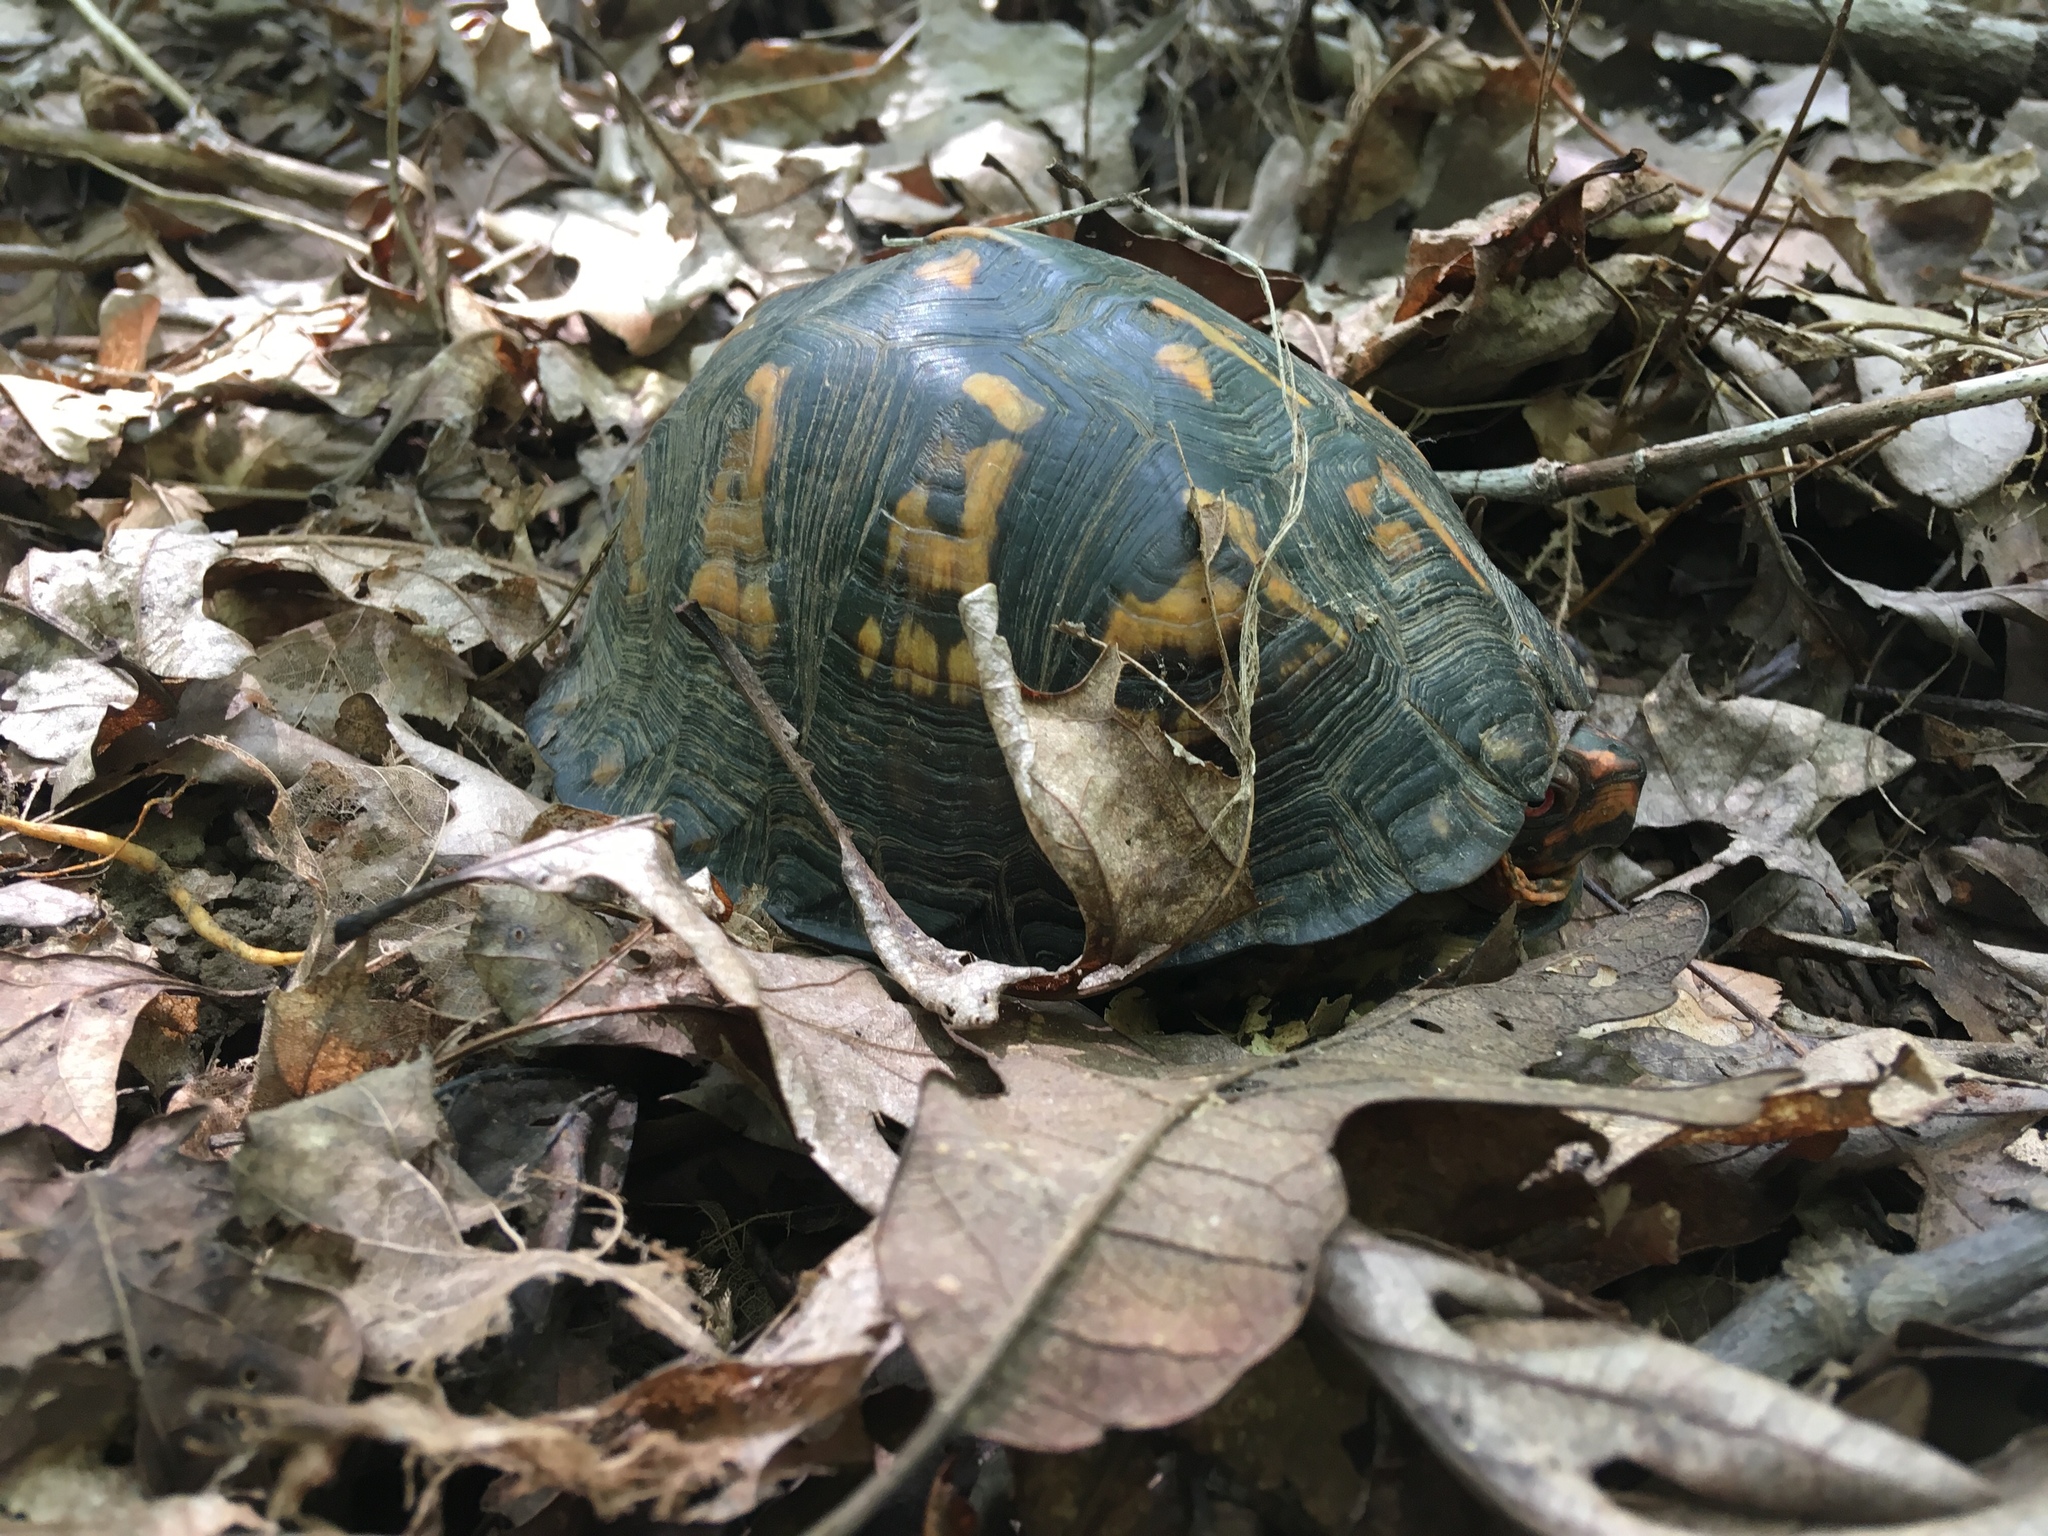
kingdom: Animalia
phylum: Chordata
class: Testudines
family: Emydidae
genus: Terrapene
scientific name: Terrapene carolina
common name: Common box turtle
